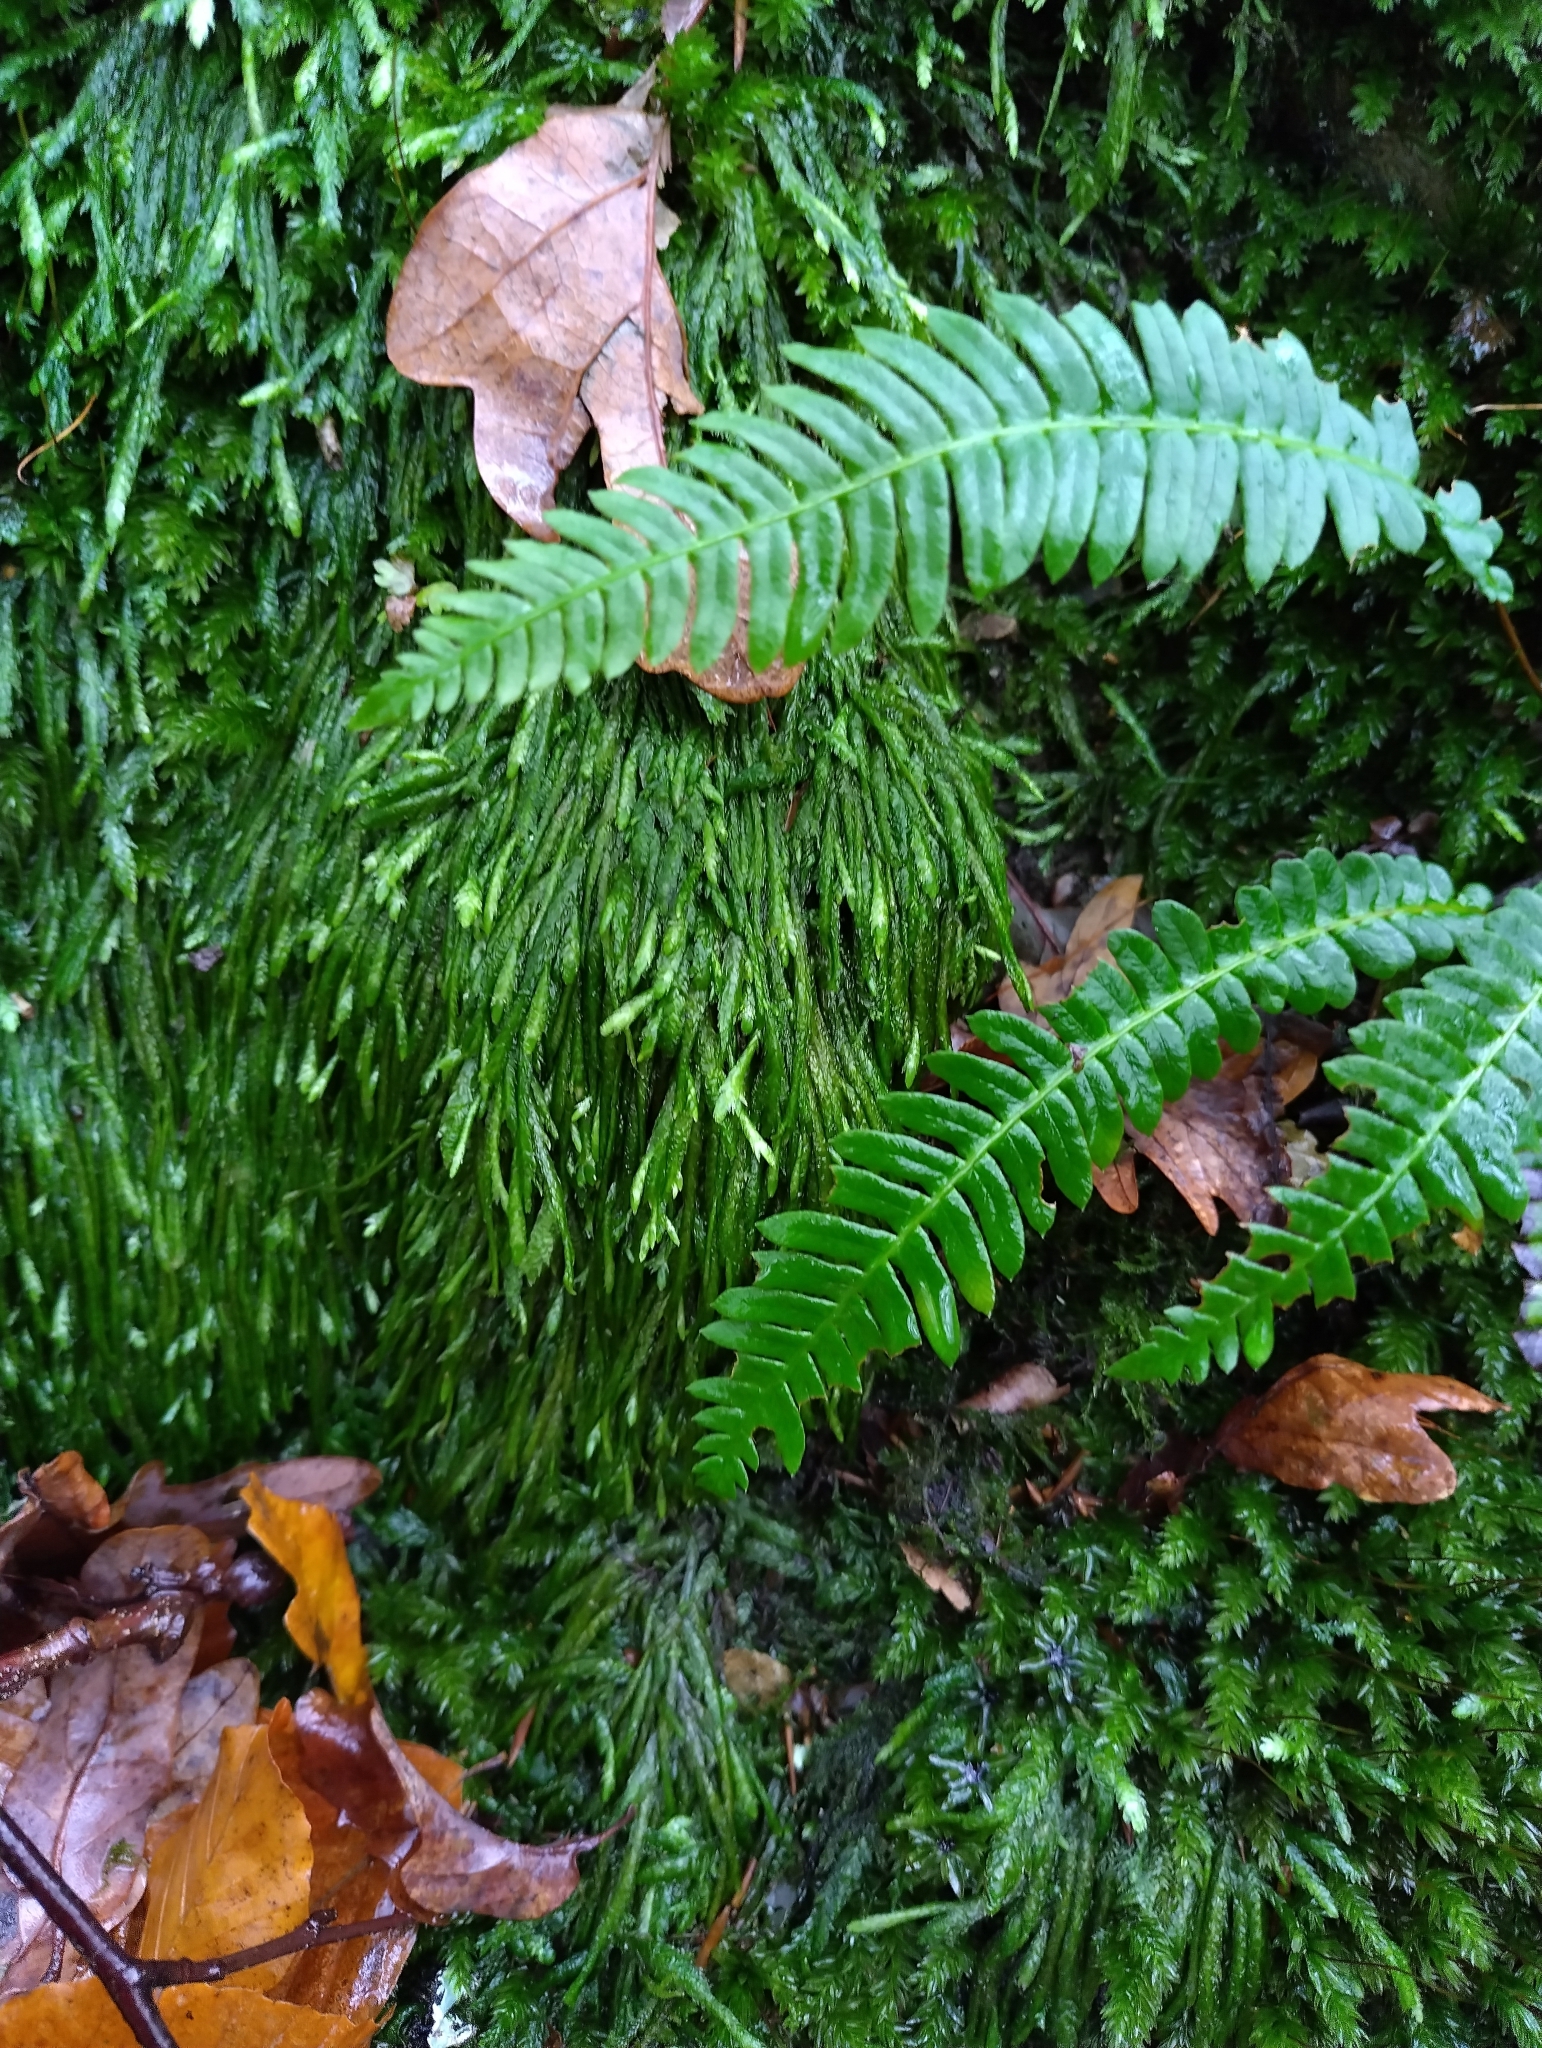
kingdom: Plantae
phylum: Tracheophyta
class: Polypodiopsida
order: Polypodiales
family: Blechnaceae
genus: Struthiopteris
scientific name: Struthiopteris spicant
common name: Deer fern
